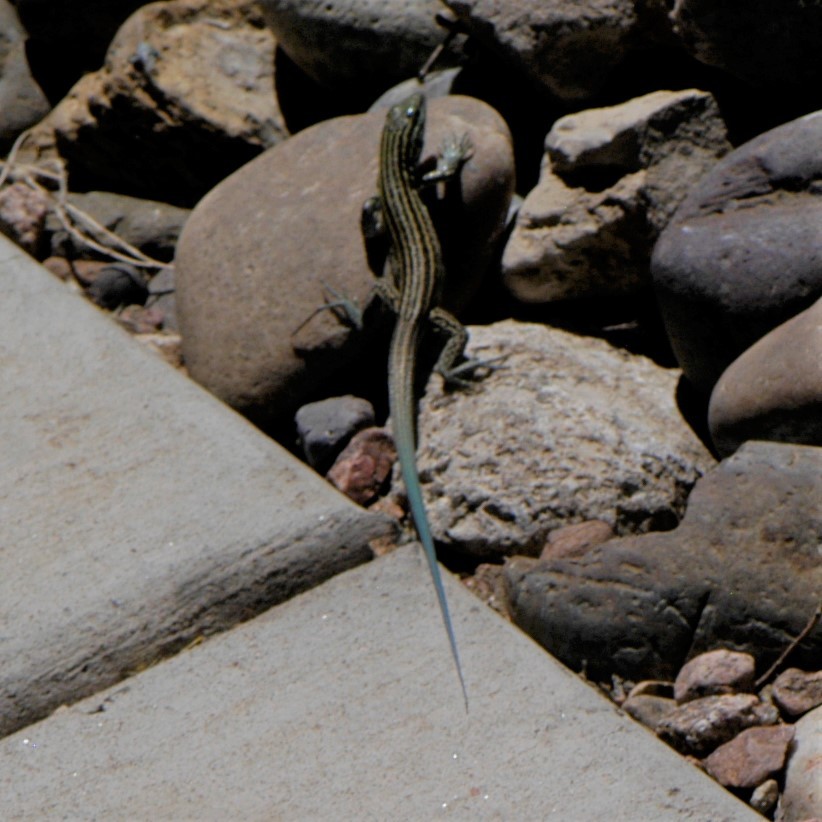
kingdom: Animalia
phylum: Chordata
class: Squamata
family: Teiidae
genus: Aspidoscelis
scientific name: Aspidoscelis neomexicanus
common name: New mexico whiptail
